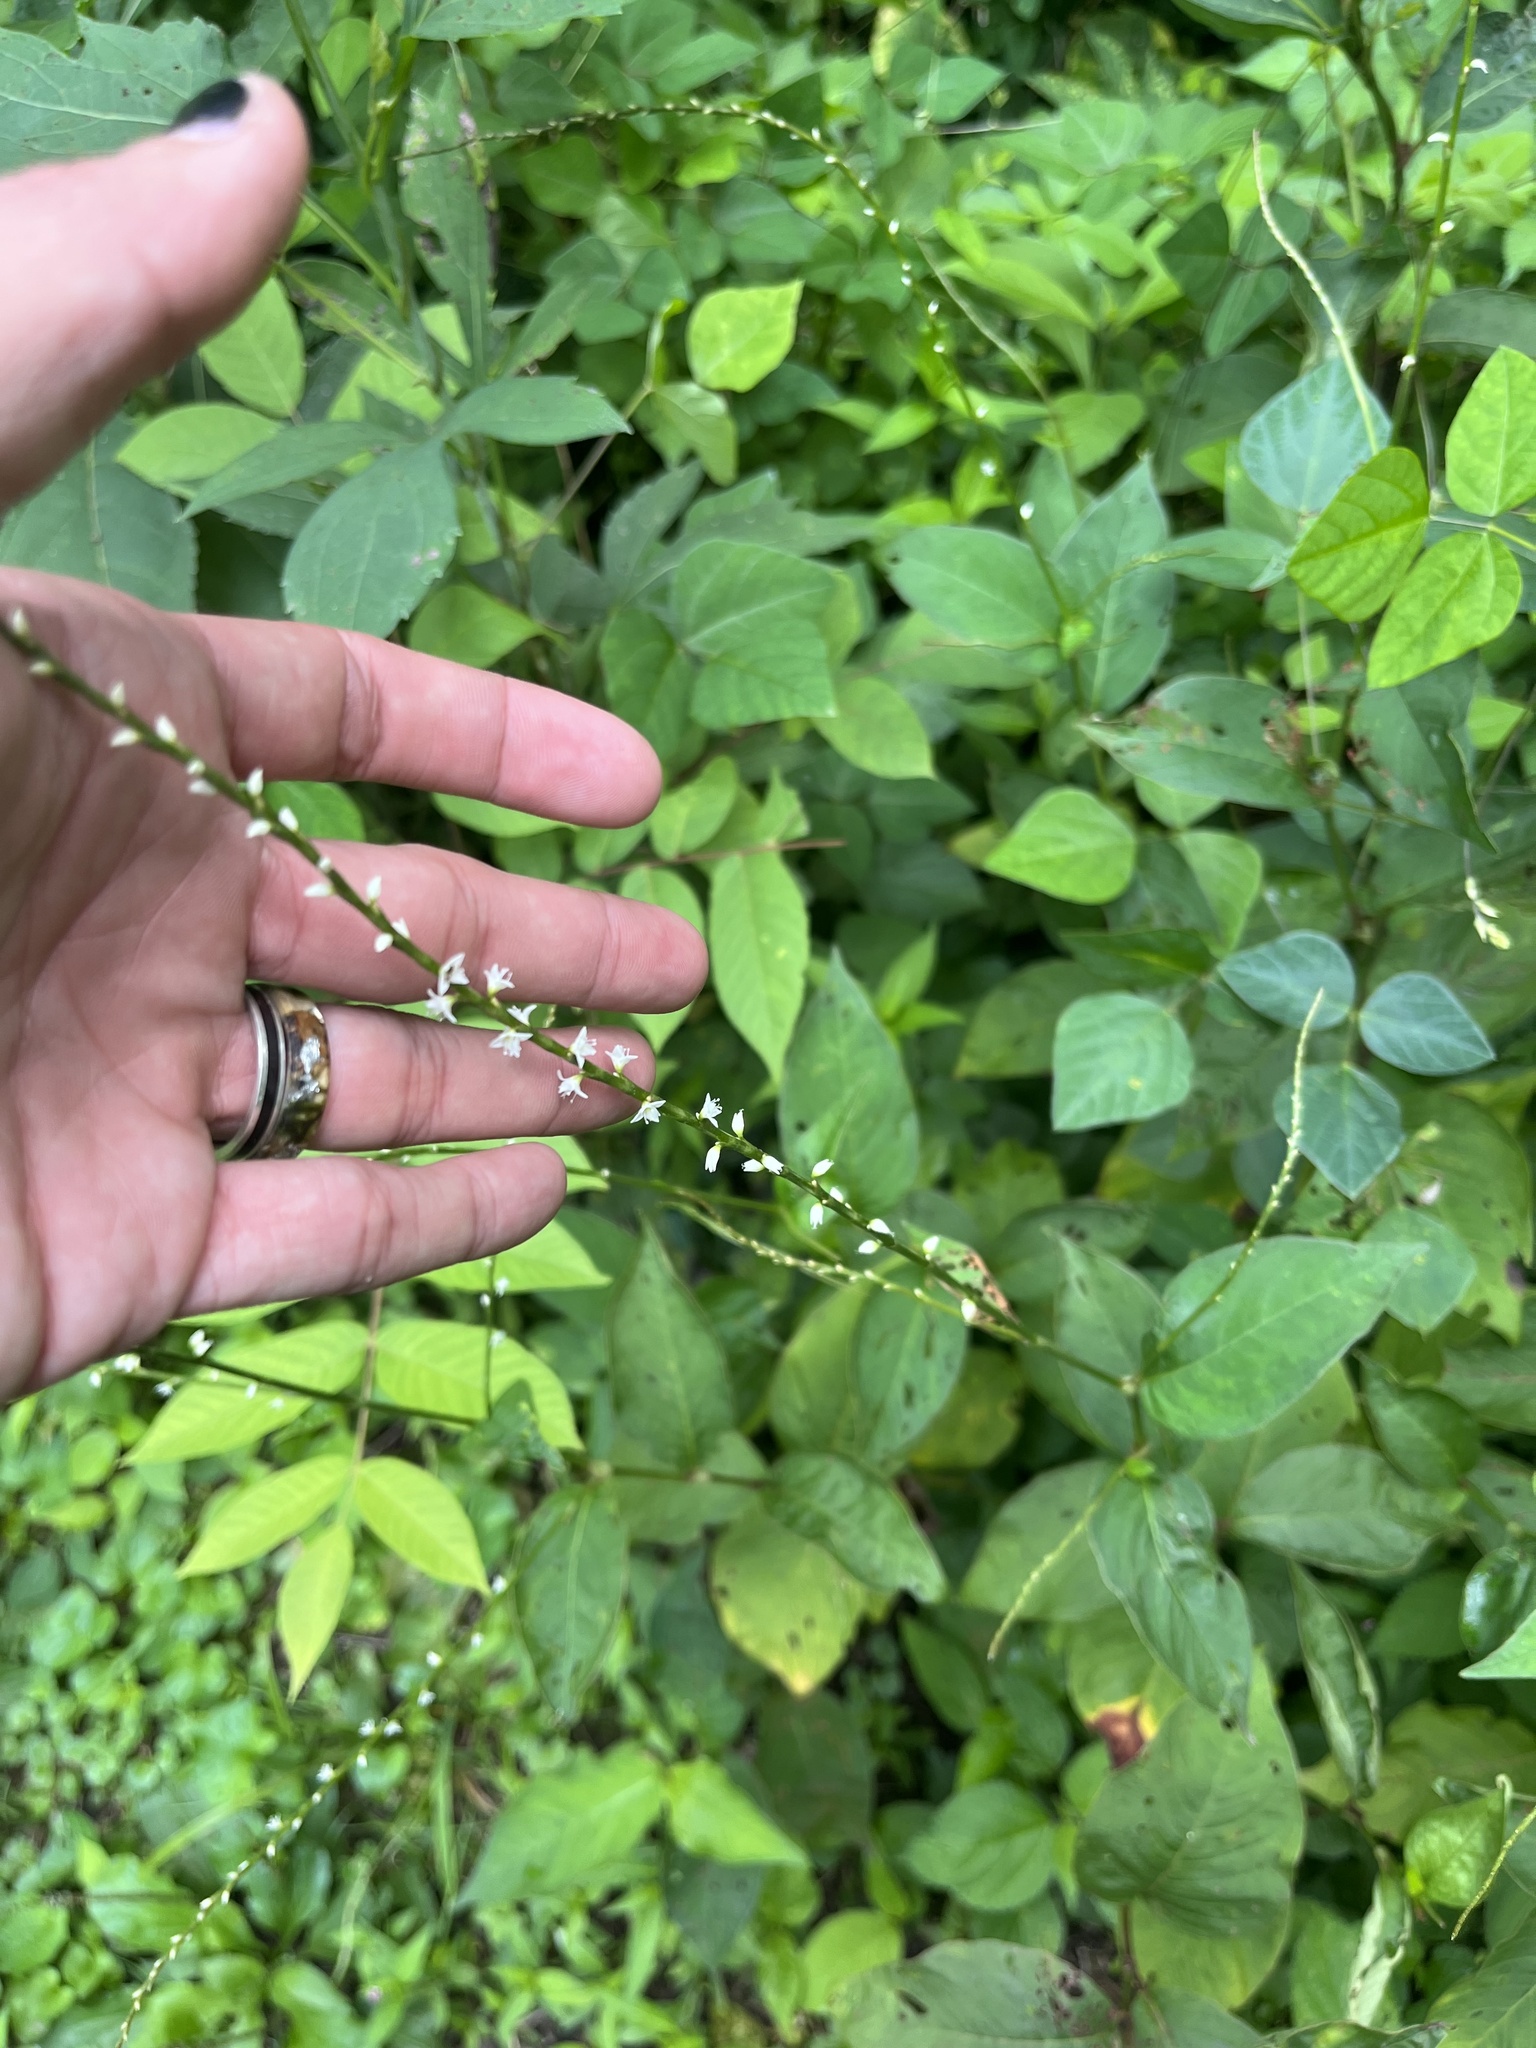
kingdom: Plantae
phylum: Tracheophyta
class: Magnoliopsida
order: Caryophyllales
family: Polygonaceae
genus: Persicaria
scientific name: Persicaria virginiana
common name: Jumpseed
